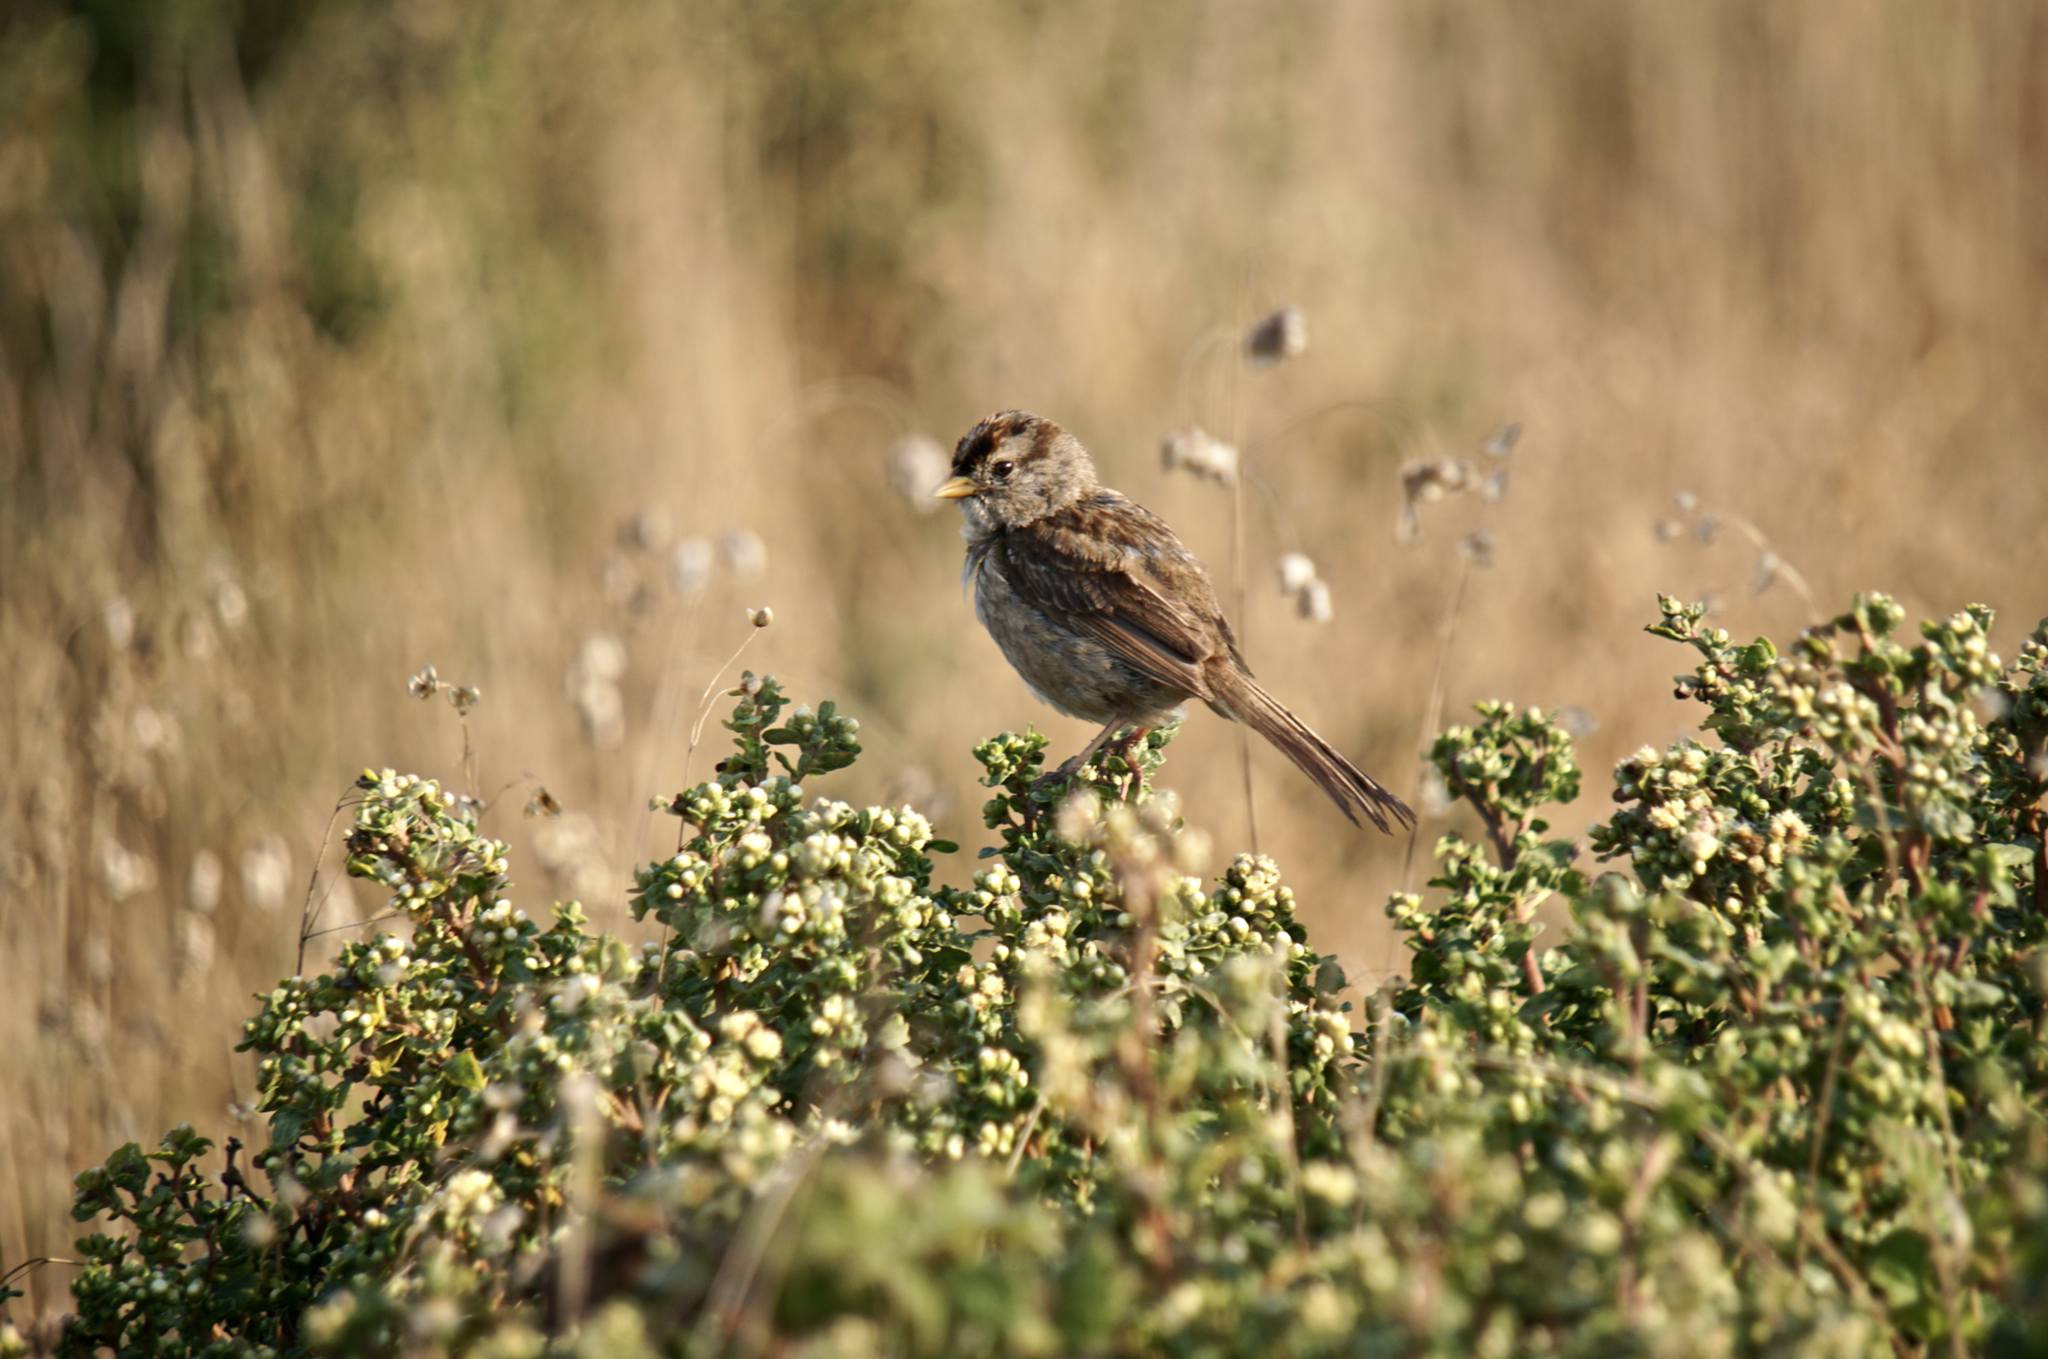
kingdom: Animalia
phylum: Chordata
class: Aves
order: Passeriformes
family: Passerellidae
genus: Zonotrichia
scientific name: Zonotrichia leucophrys
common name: White-crowned sparrow
